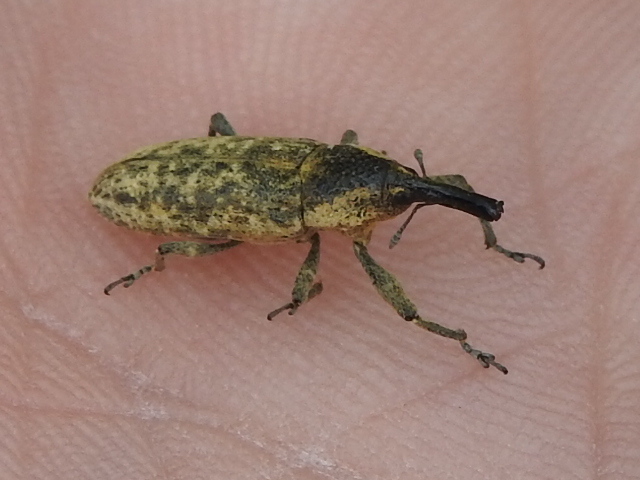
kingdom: Animalia
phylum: Arthropoda
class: Insecta
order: Coleoptera
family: Curculionidae
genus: Lixus
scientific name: Lixus scrobicollis
